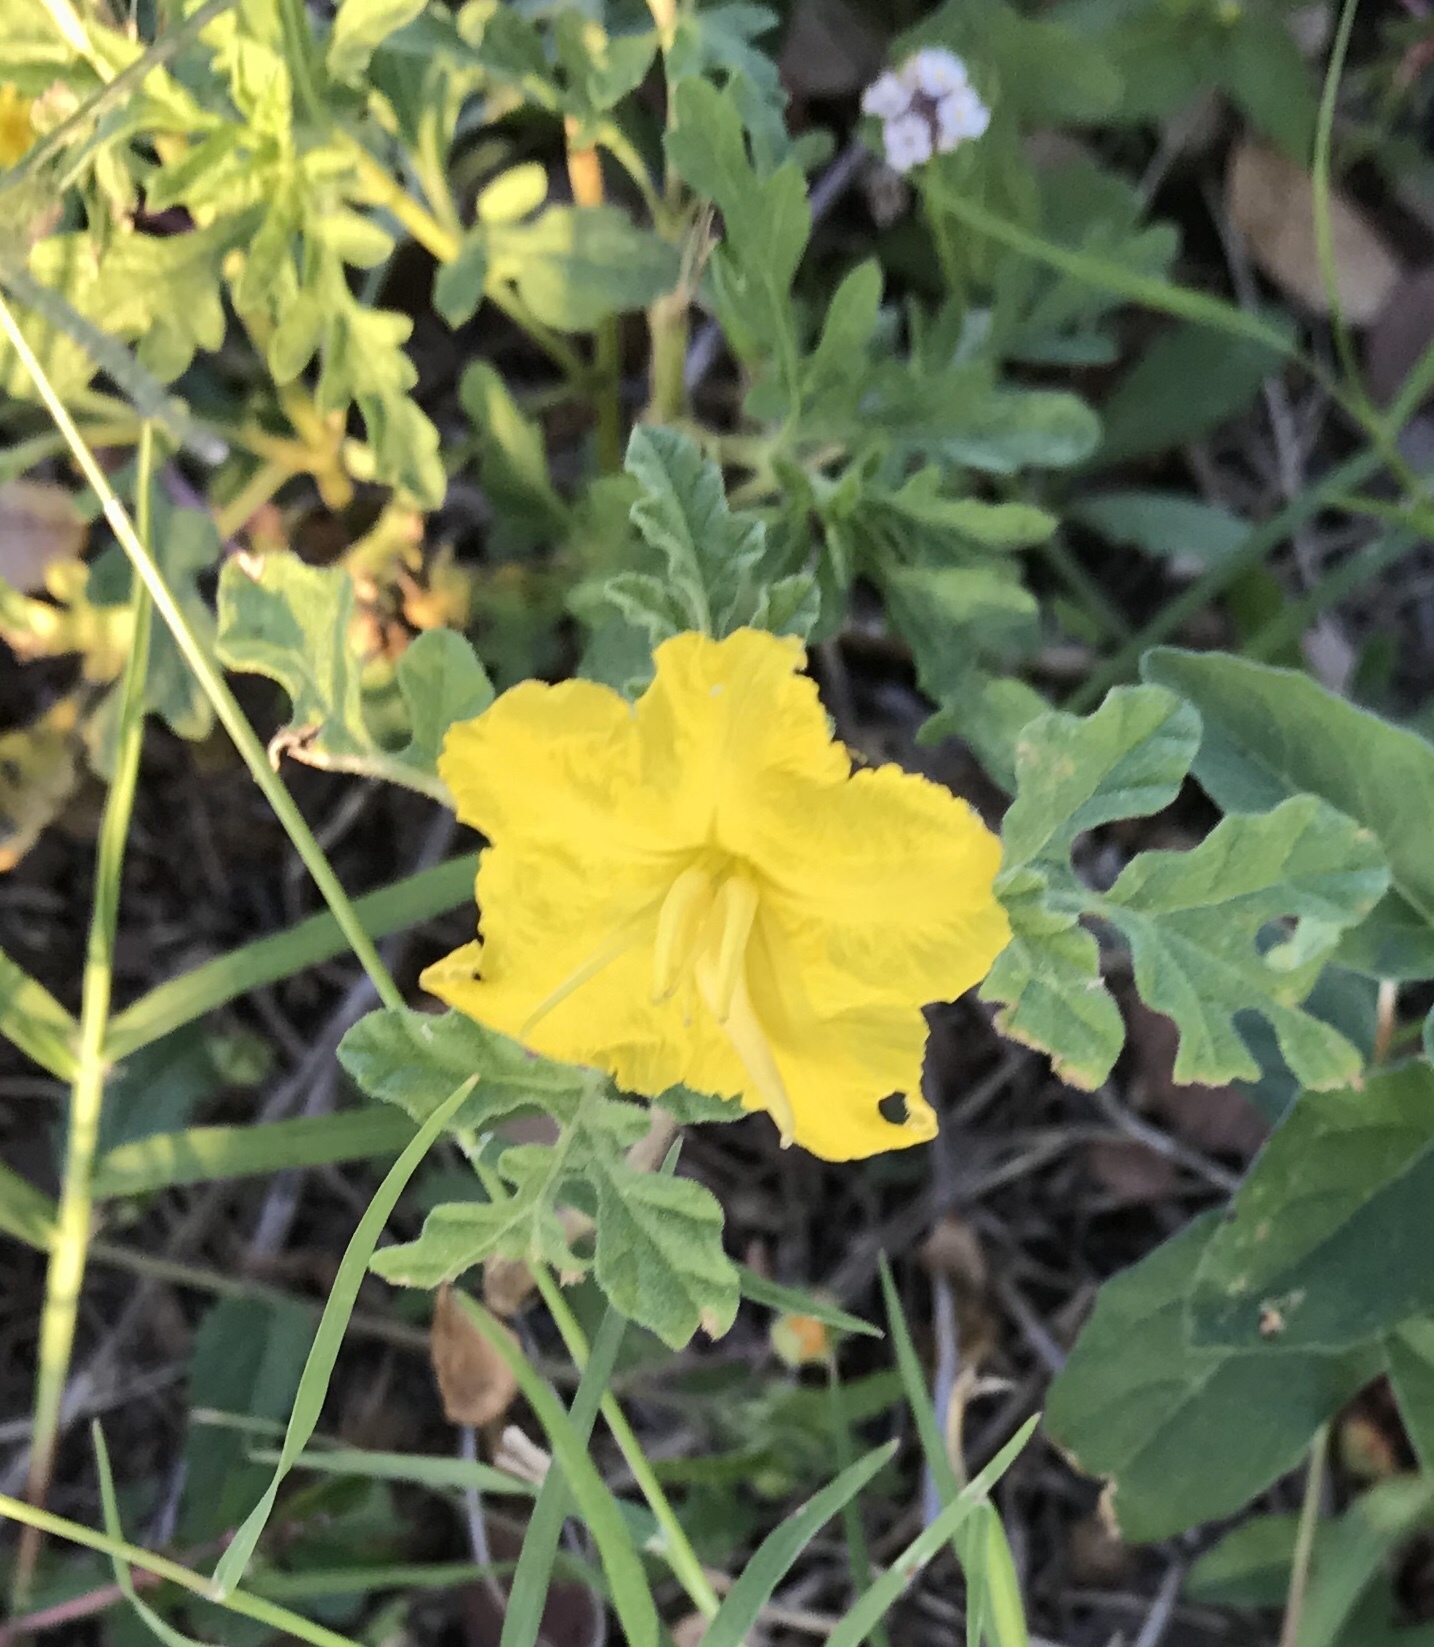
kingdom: Plantae
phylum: Tracheophyta
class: Magnoliopsida
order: Solanales
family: Solanaceae
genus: Solanum
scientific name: Solanum angustifolium
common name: Buffalobur nightshade
